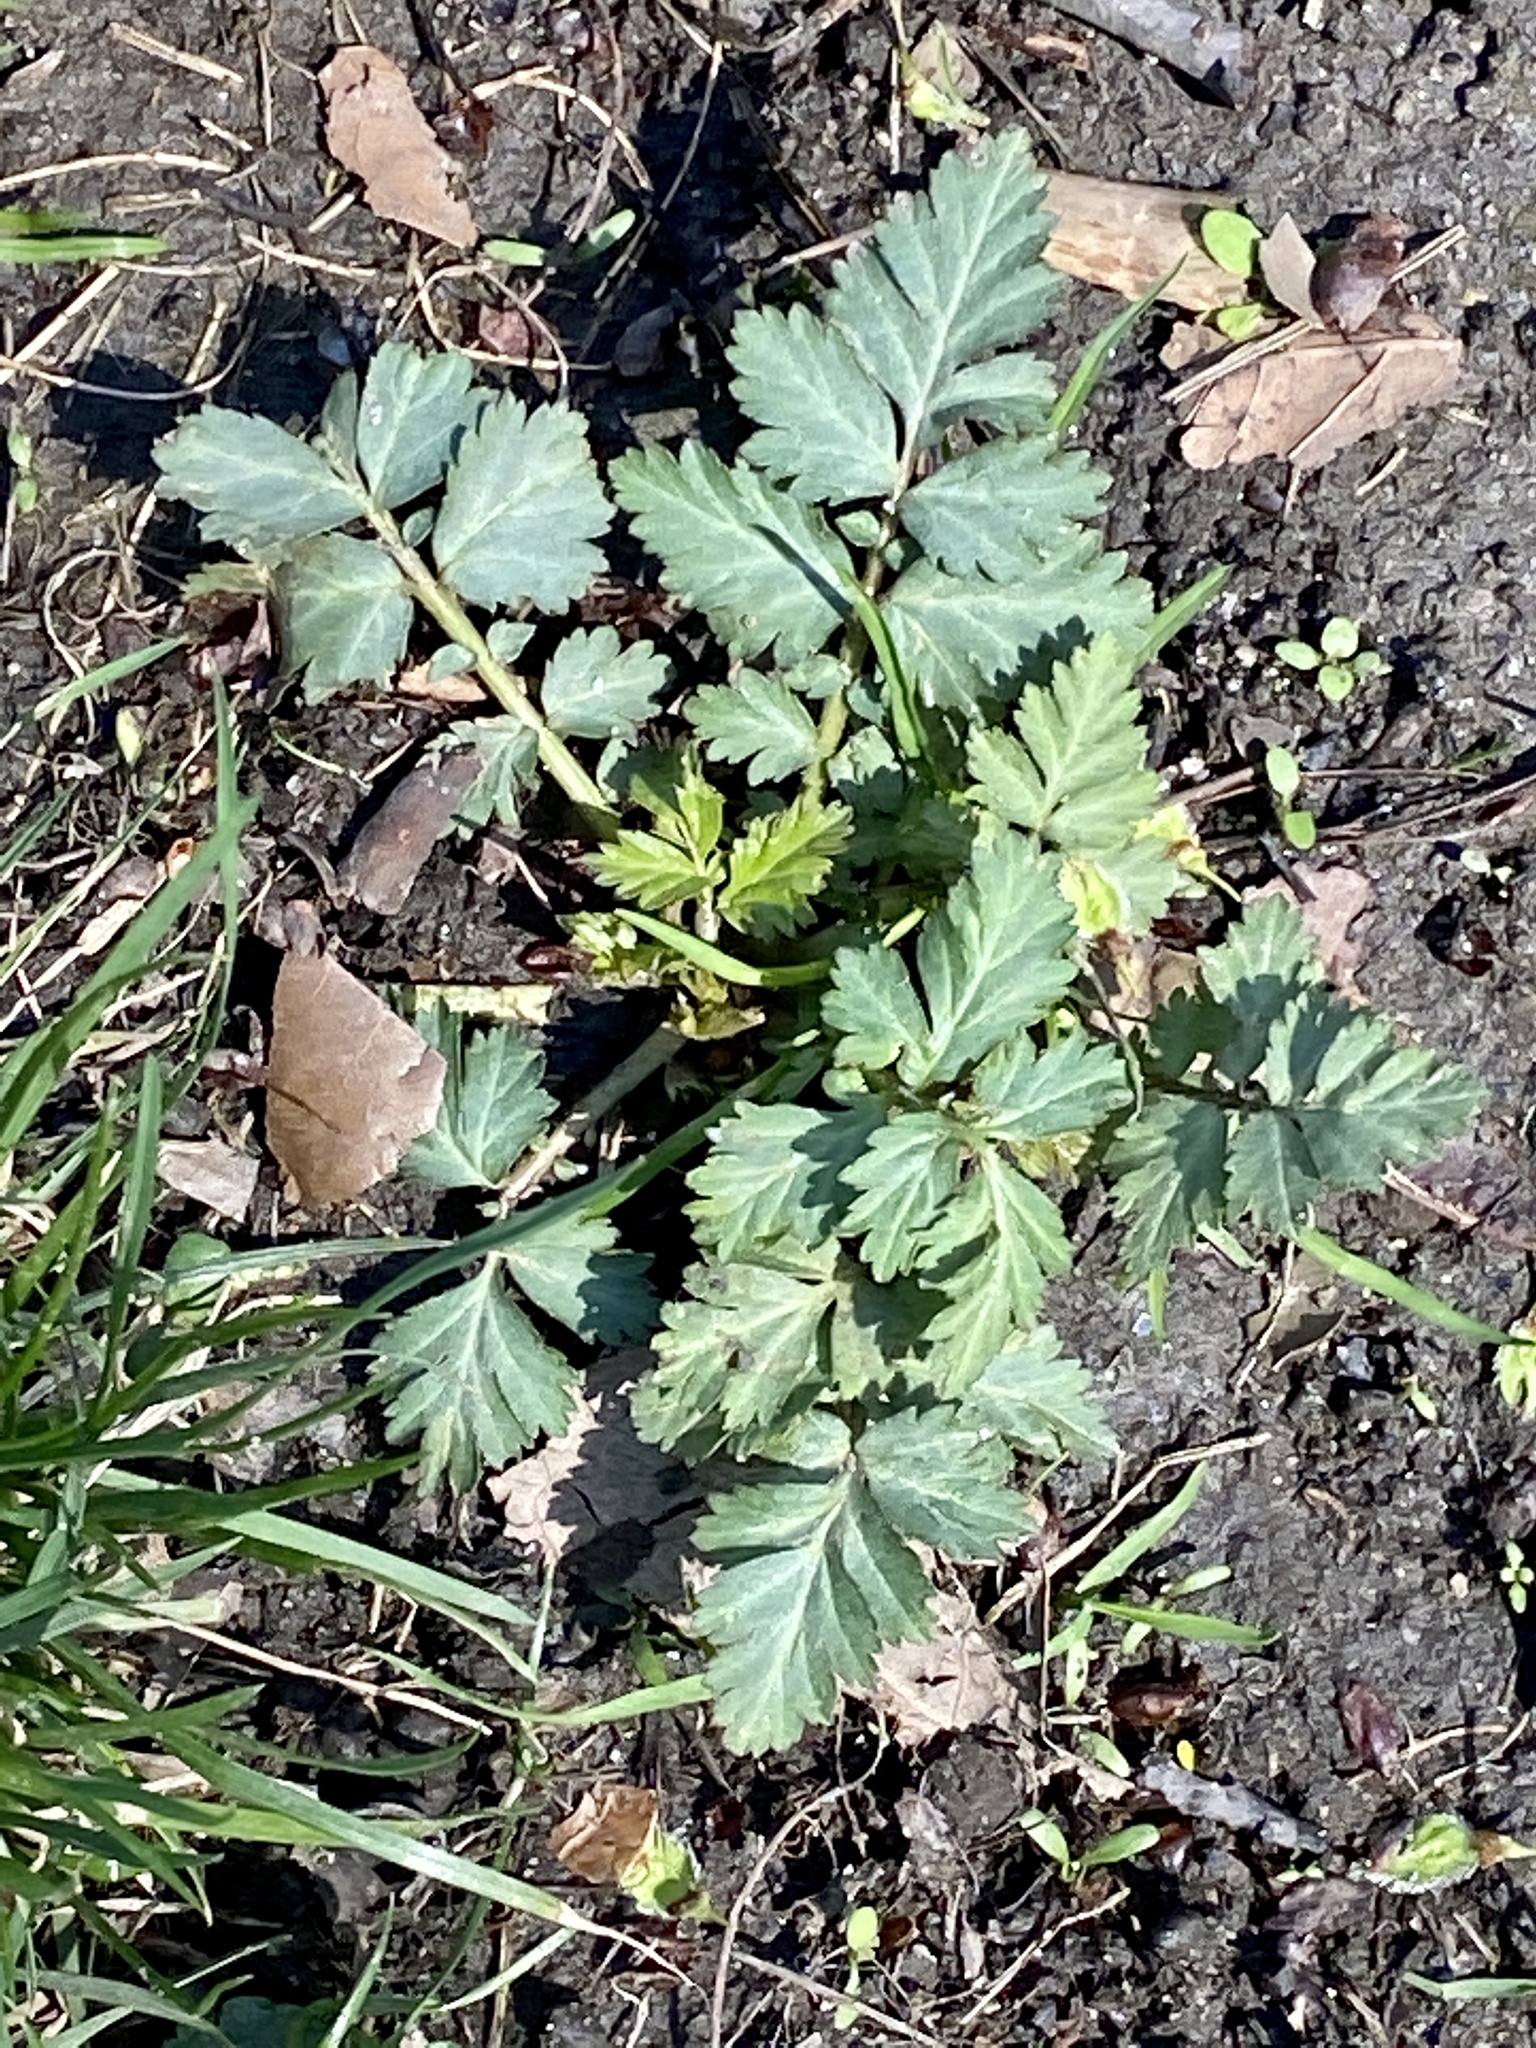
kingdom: Plantae
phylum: Tracheophyta
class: Magnoliopsida
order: Rosales
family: Rosaceae
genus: Geum
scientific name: Geum canadense
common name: White avens
